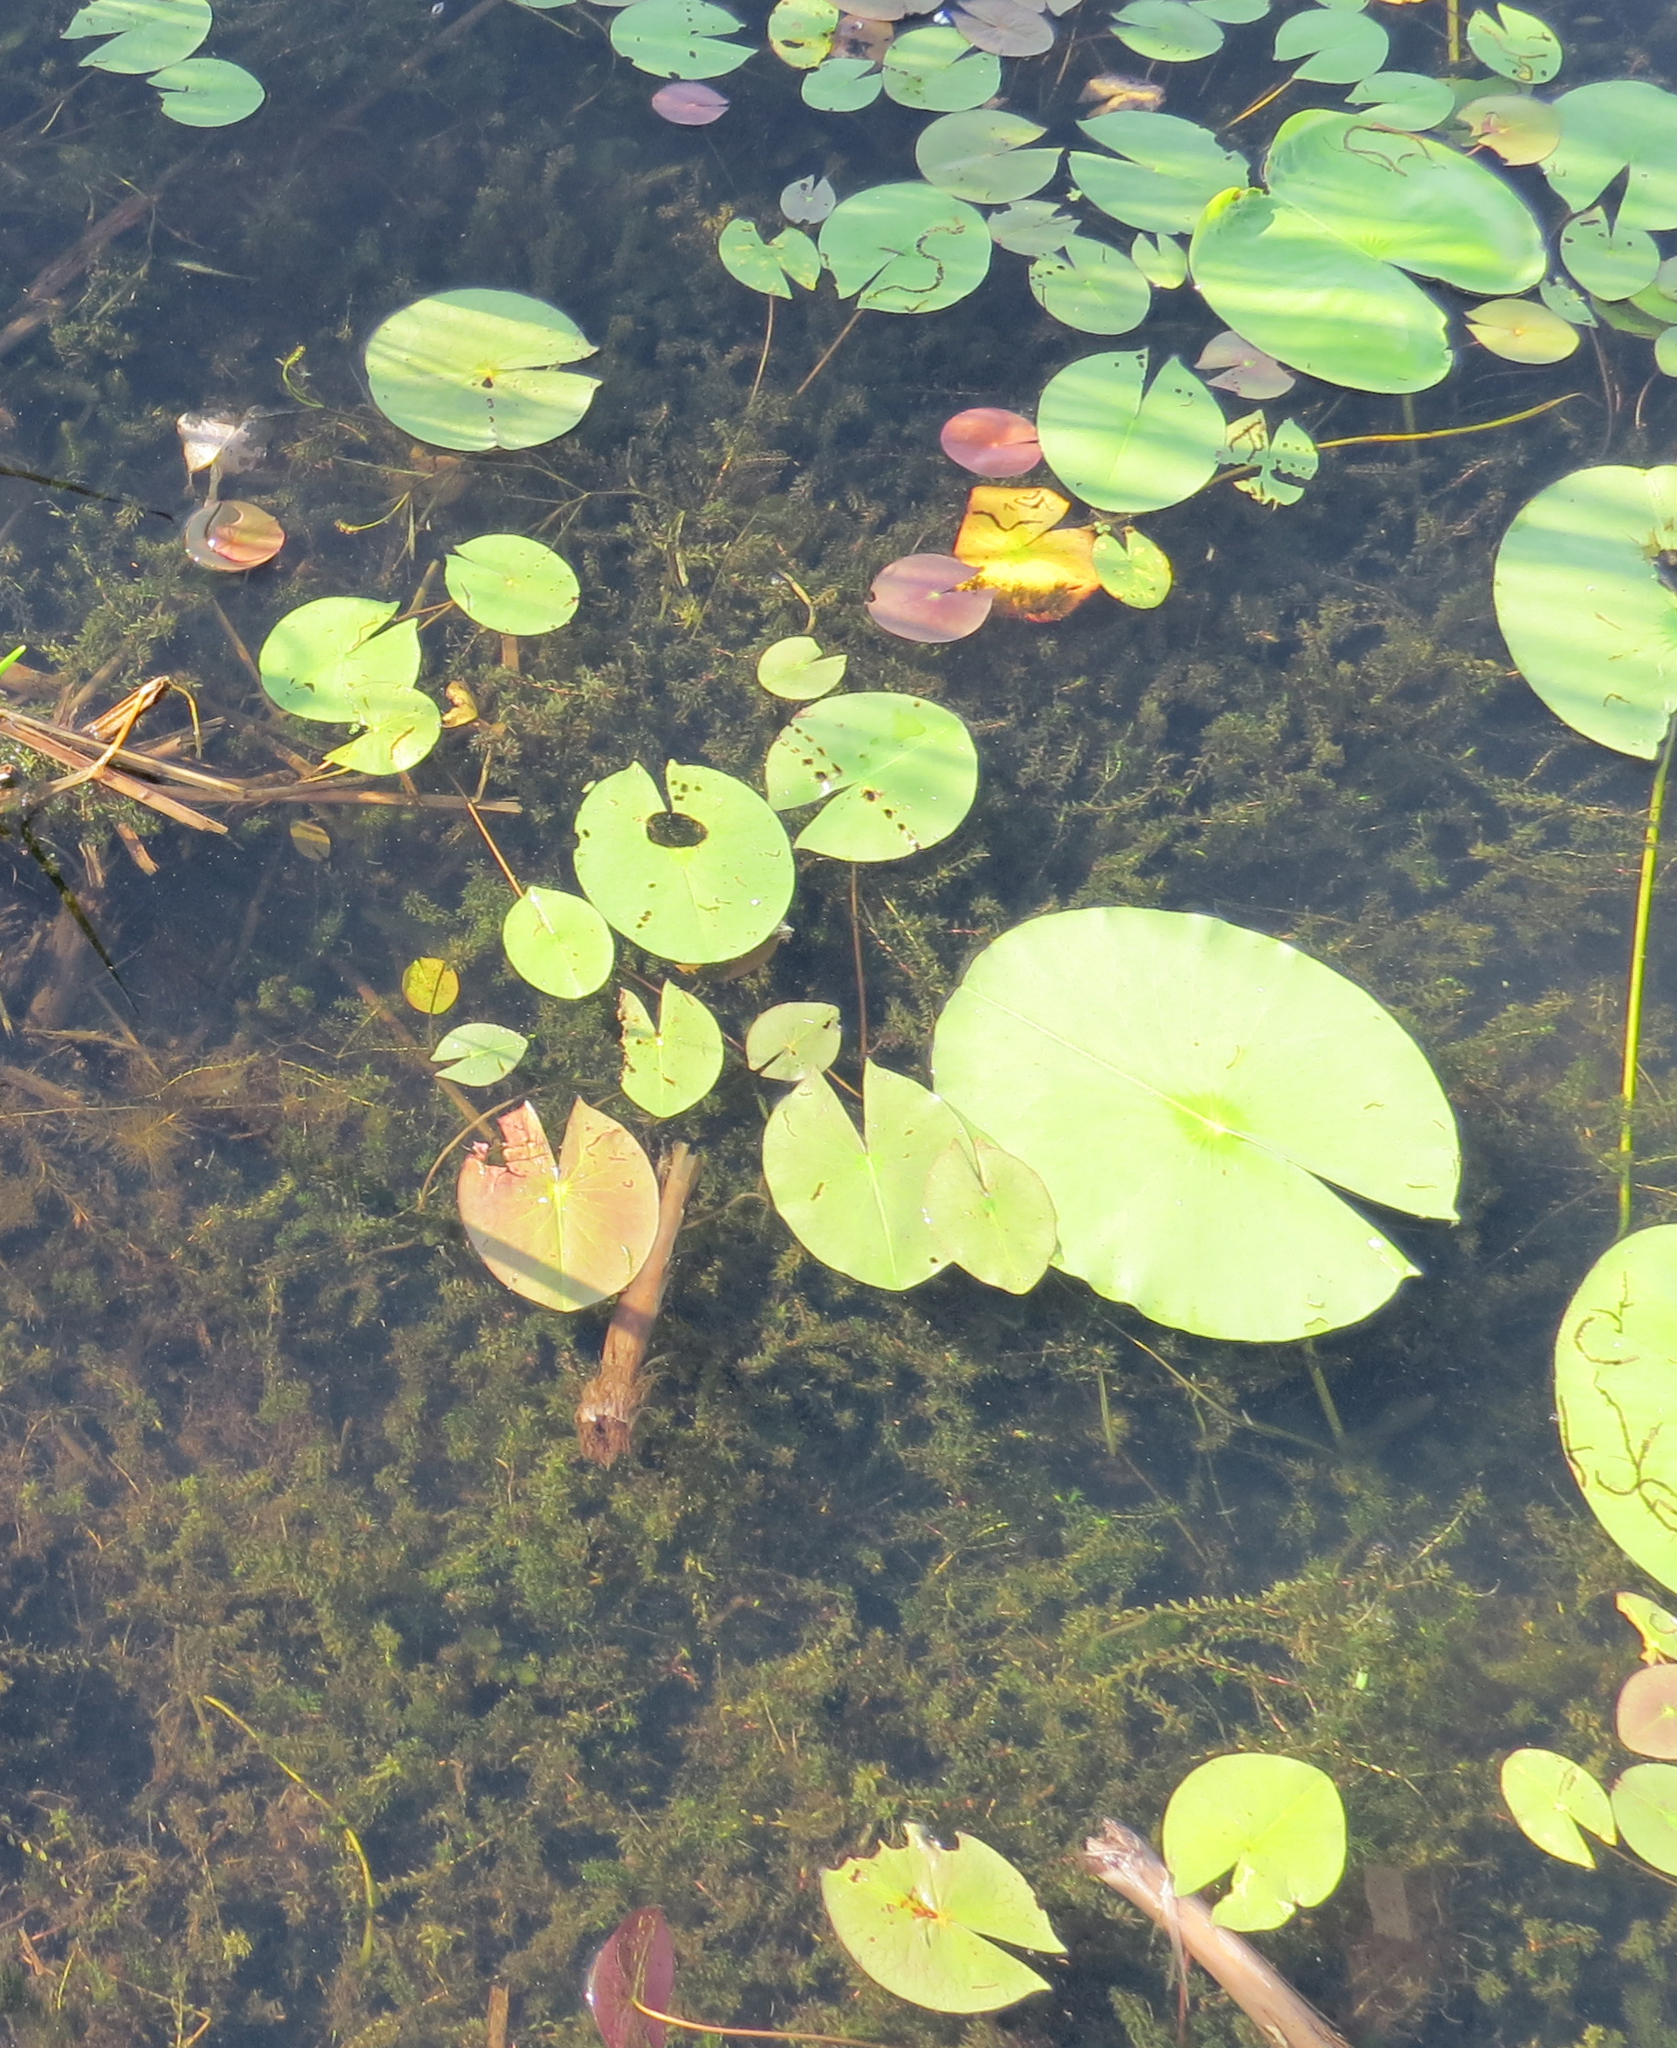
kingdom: Plantae
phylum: Tracheophyta
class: Magnoliopsida
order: Nymphaeales
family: Nymphaeaceae
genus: Nymphaea
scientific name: Nymphaea odorata
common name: Fragrant water-lily
